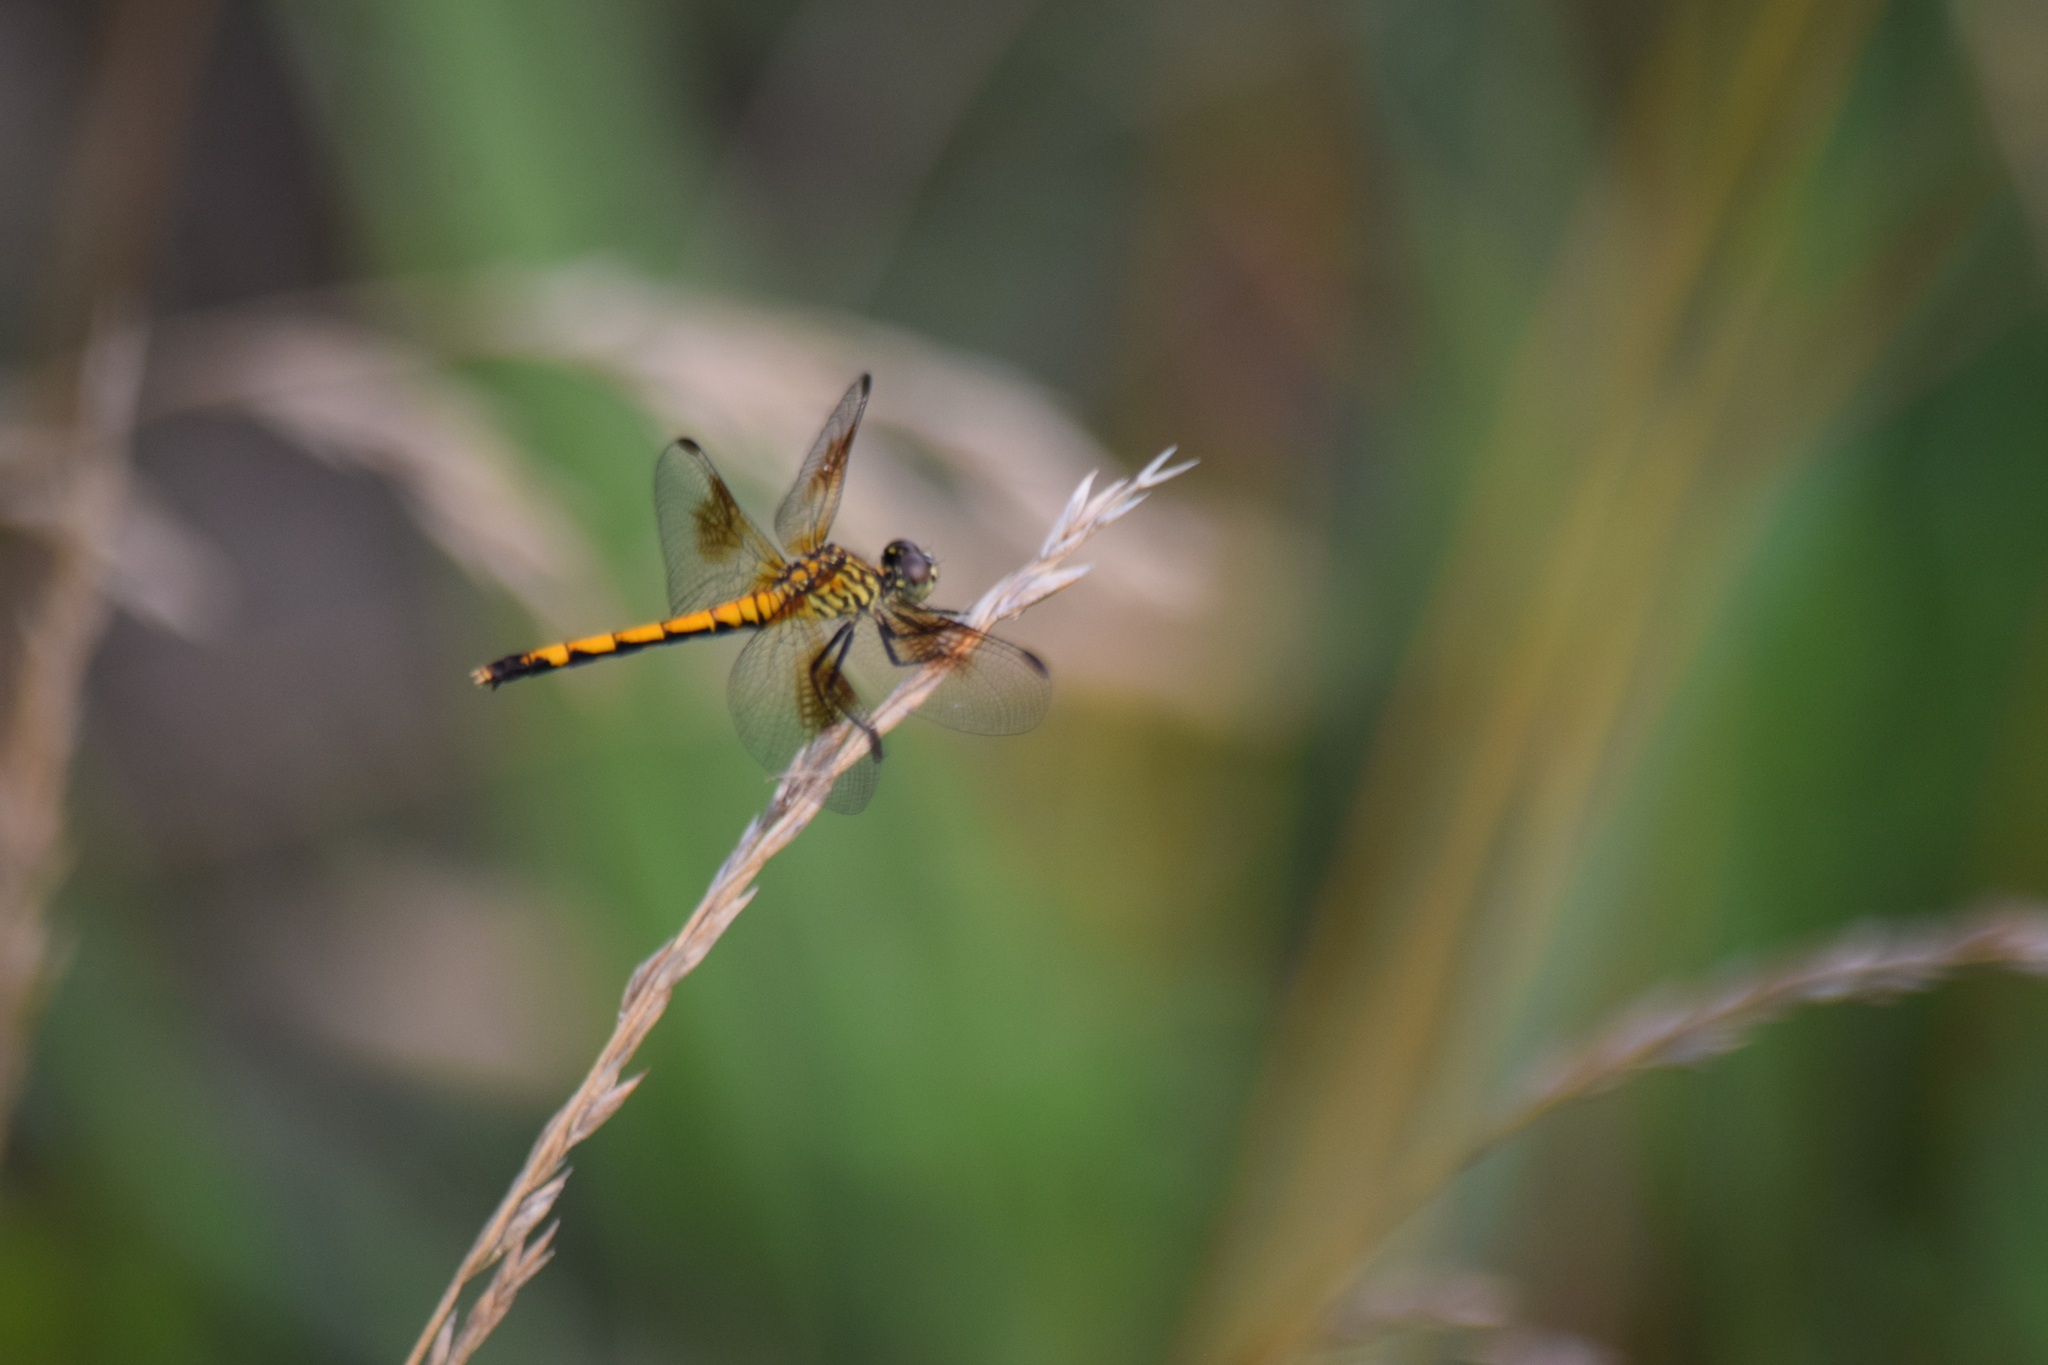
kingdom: Animalia
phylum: Arthropoda
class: Insecta
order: Odonata
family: Libellulidae
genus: Erythrodiplax
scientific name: Erythrodiplax berenice
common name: Seaside dragonlet
